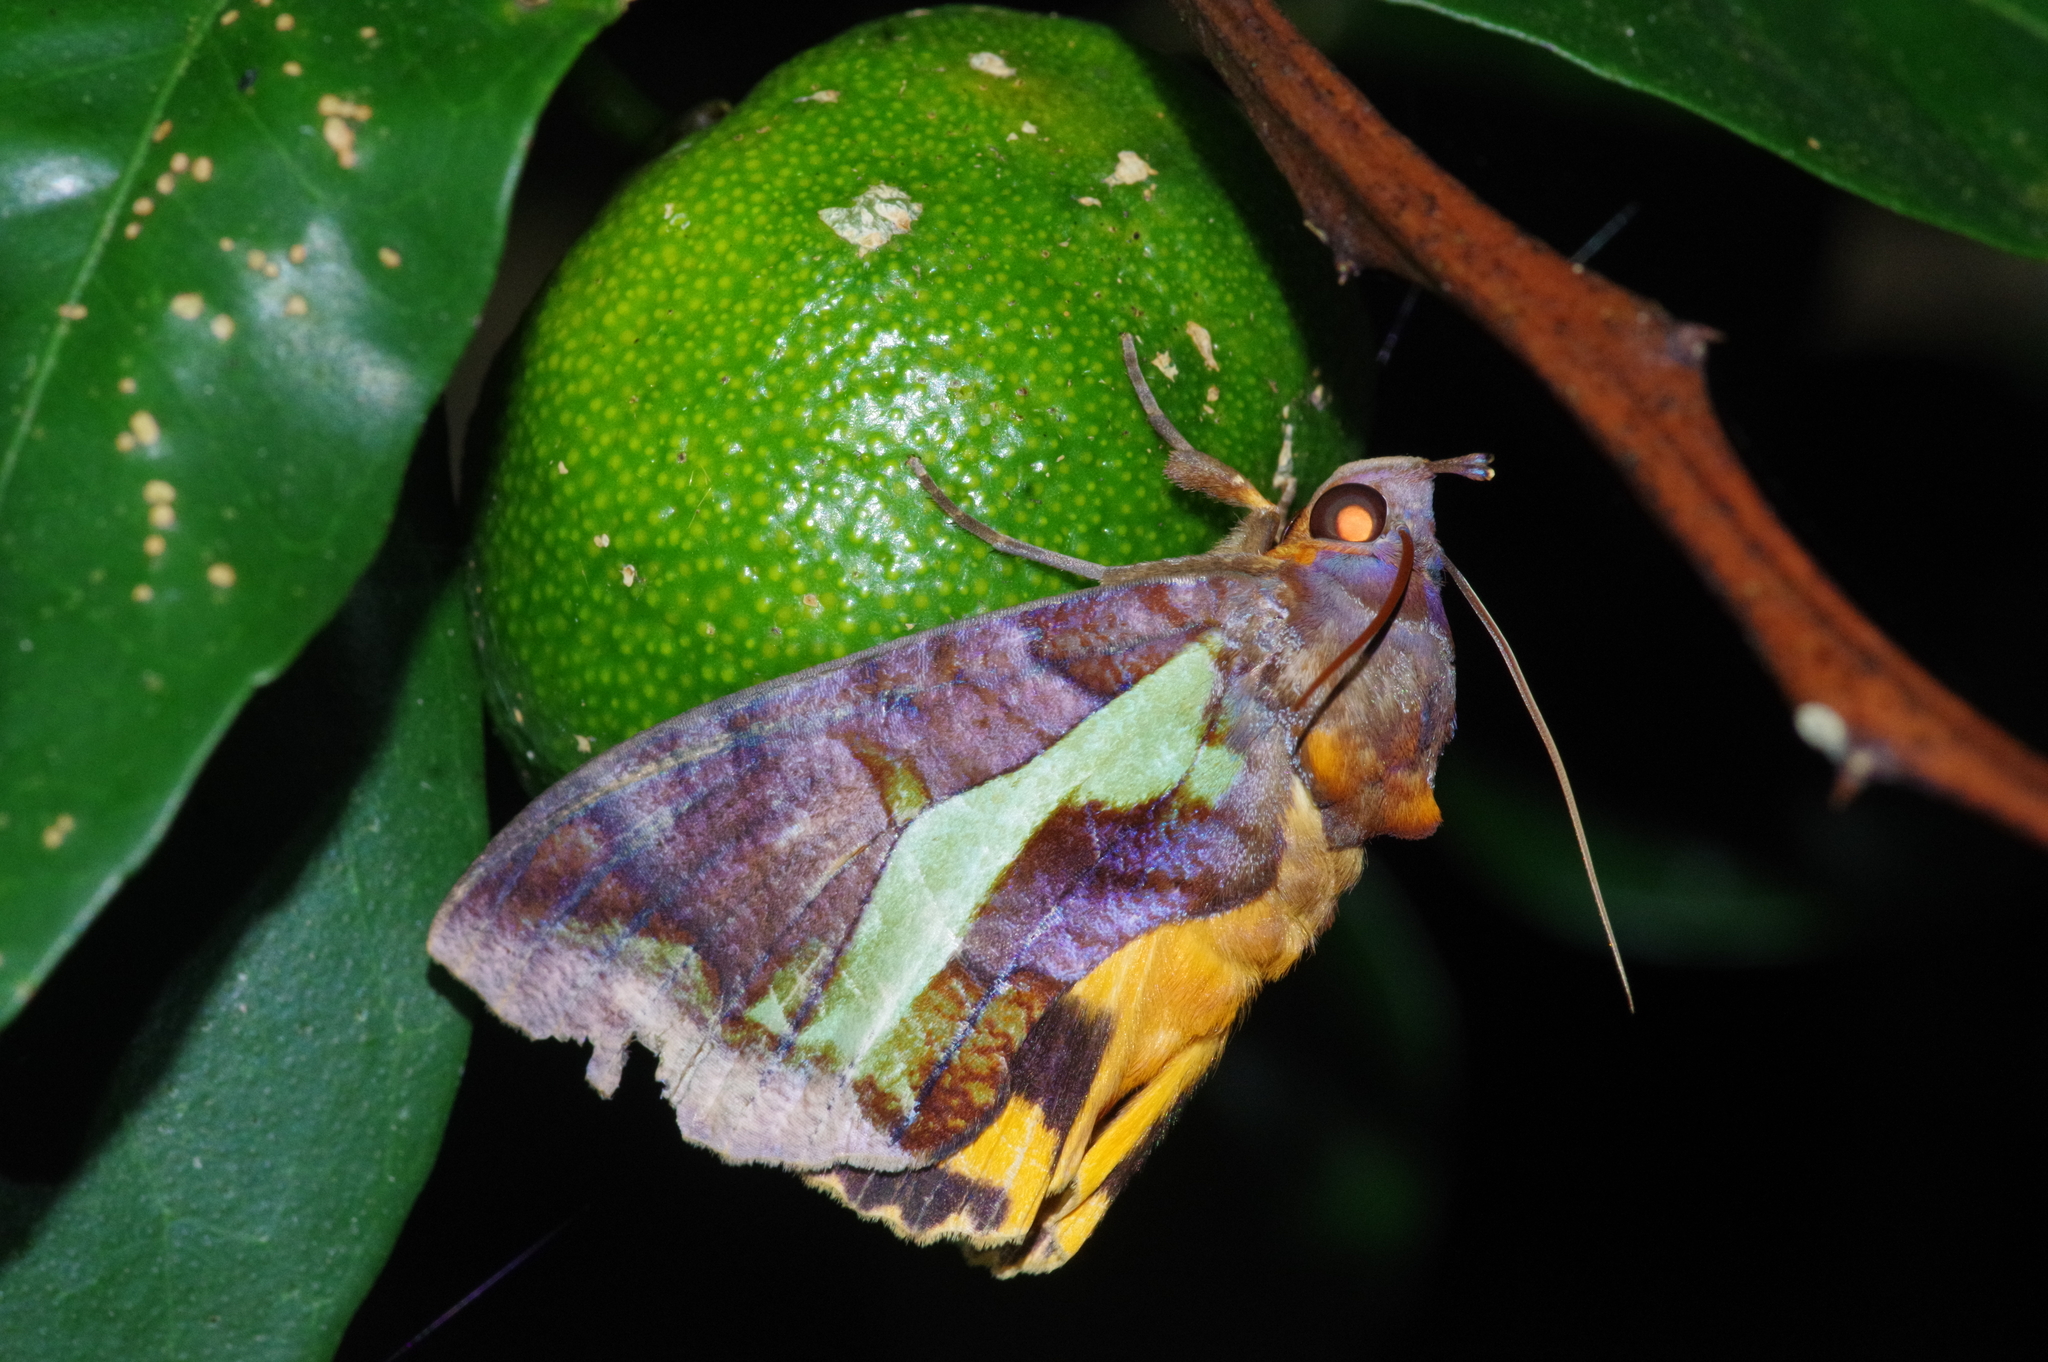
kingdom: Animalia
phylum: Arthropoda
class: Insecta
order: Lepidoptera
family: Erebidae
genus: Eudocima
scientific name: Eudocima homaena
